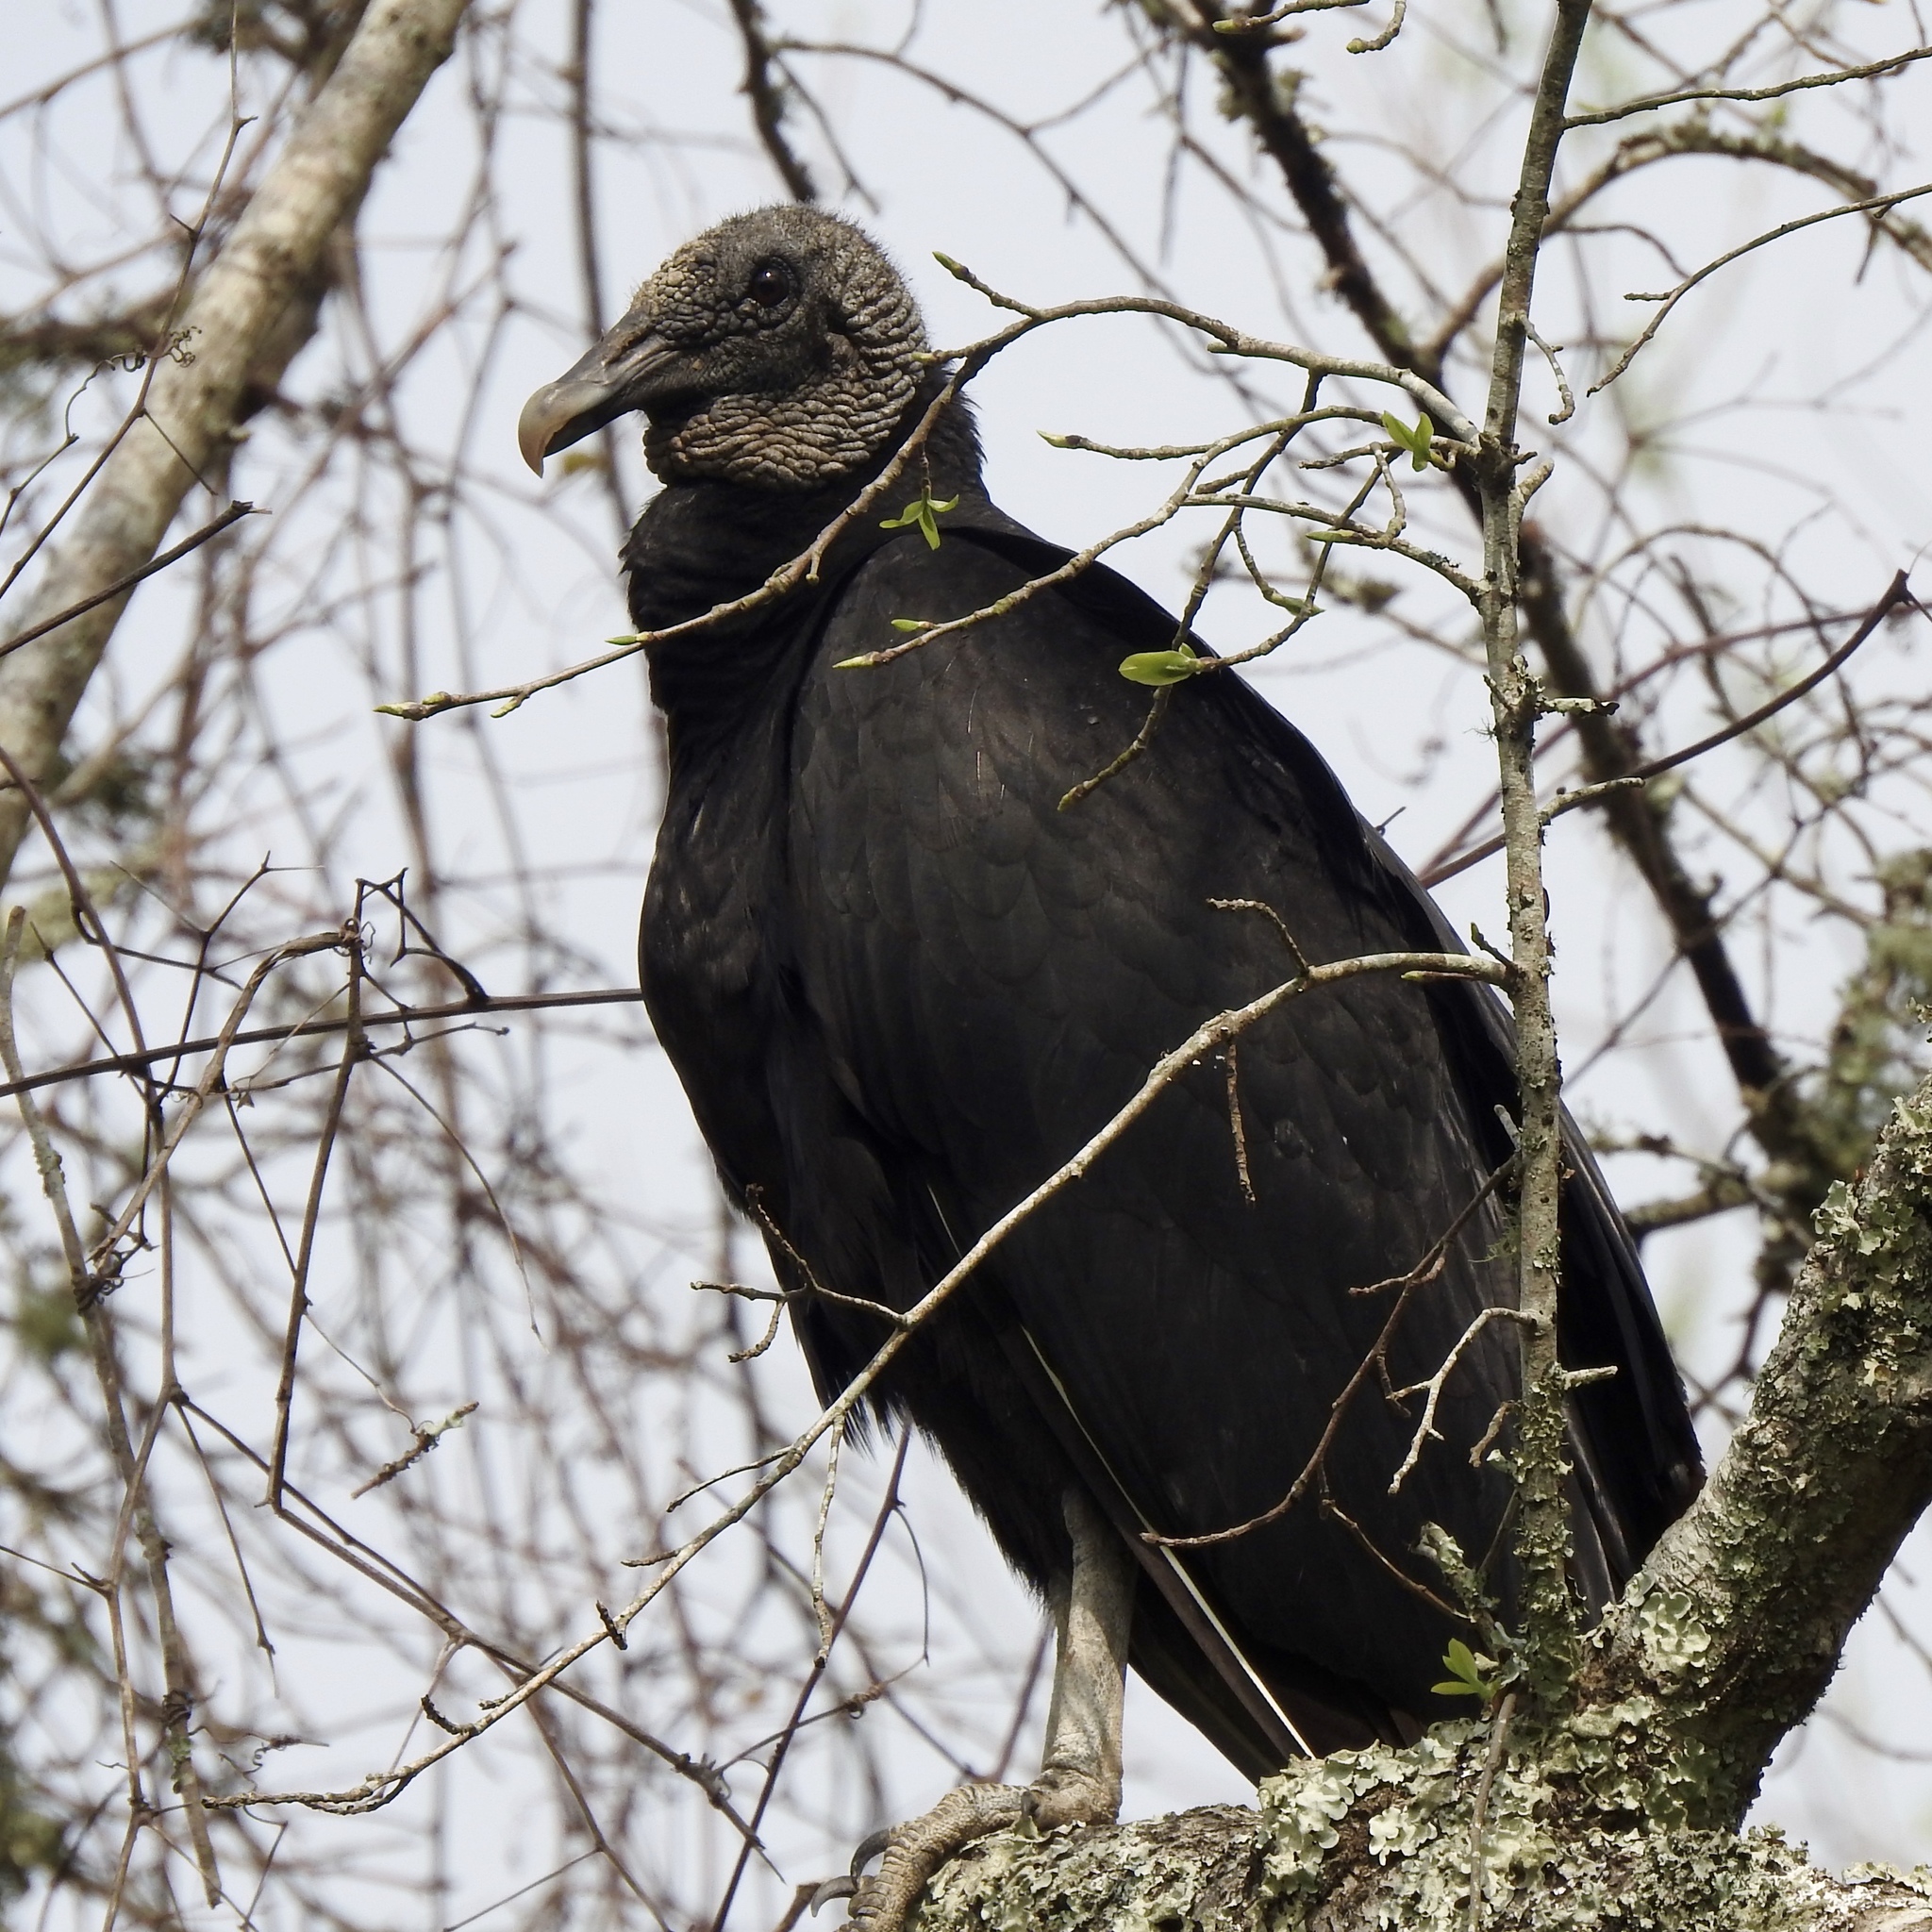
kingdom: Animalia
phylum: Chordata
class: Aves
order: Accipitriformes
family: Cathartidae
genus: Coragyps
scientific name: Coragyps atratus
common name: Black vulture
